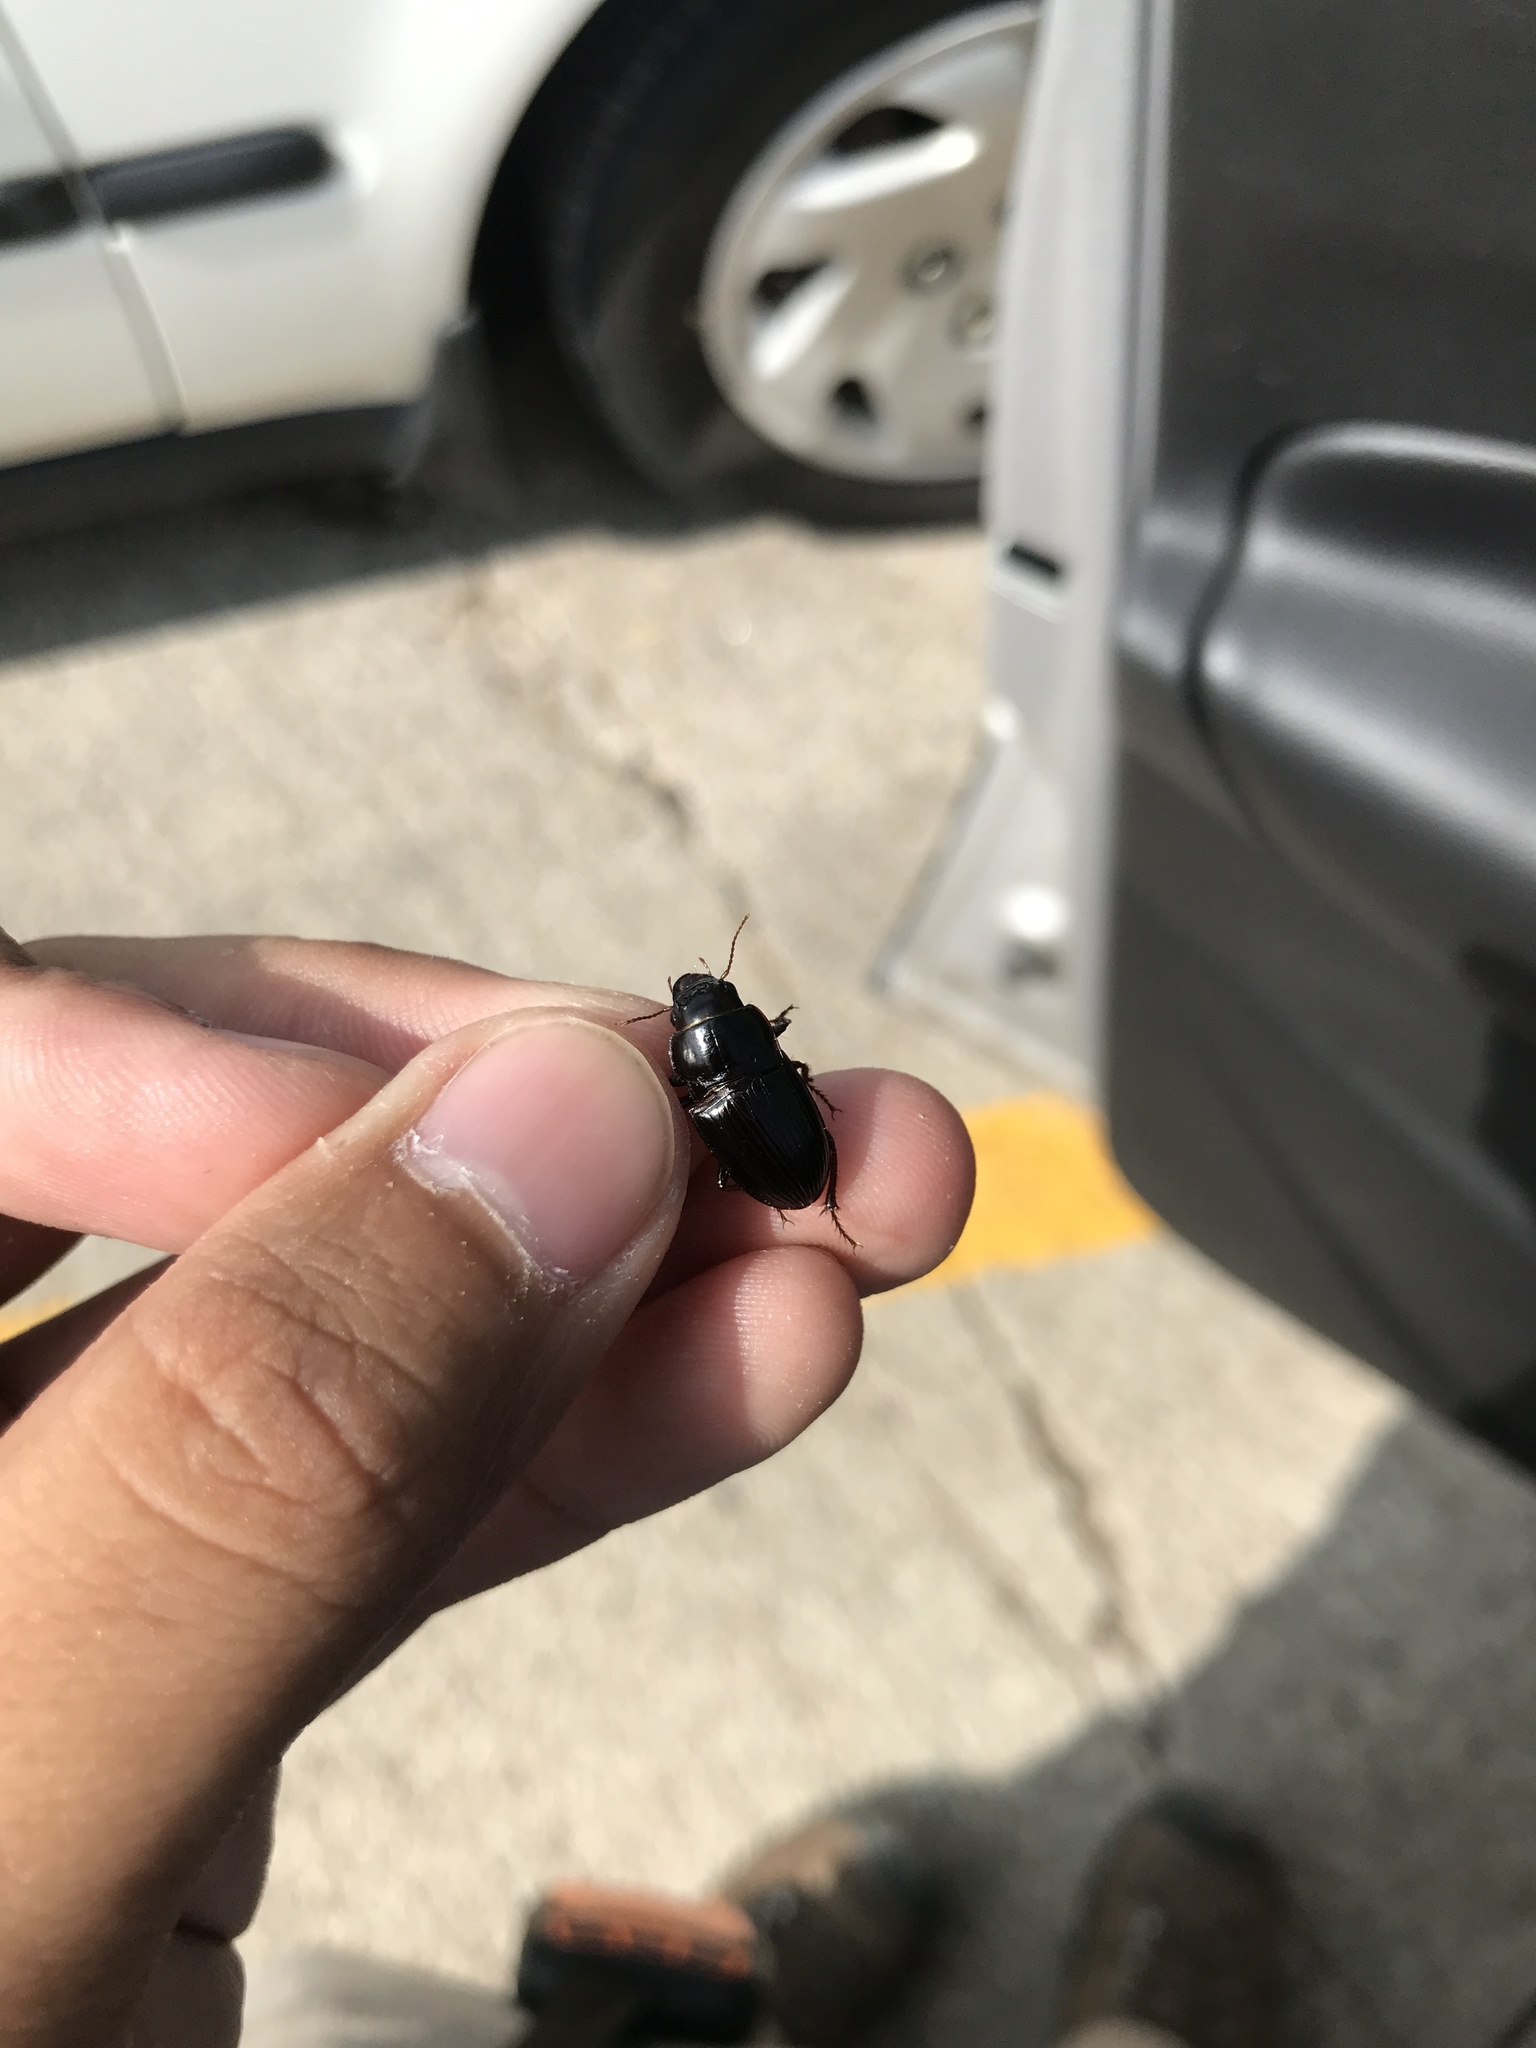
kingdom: Animalia
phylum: Arthropoda
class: Insecta
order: Coleoptera
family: Carabidae
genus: Euryderus
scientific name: Euryderus grossus
